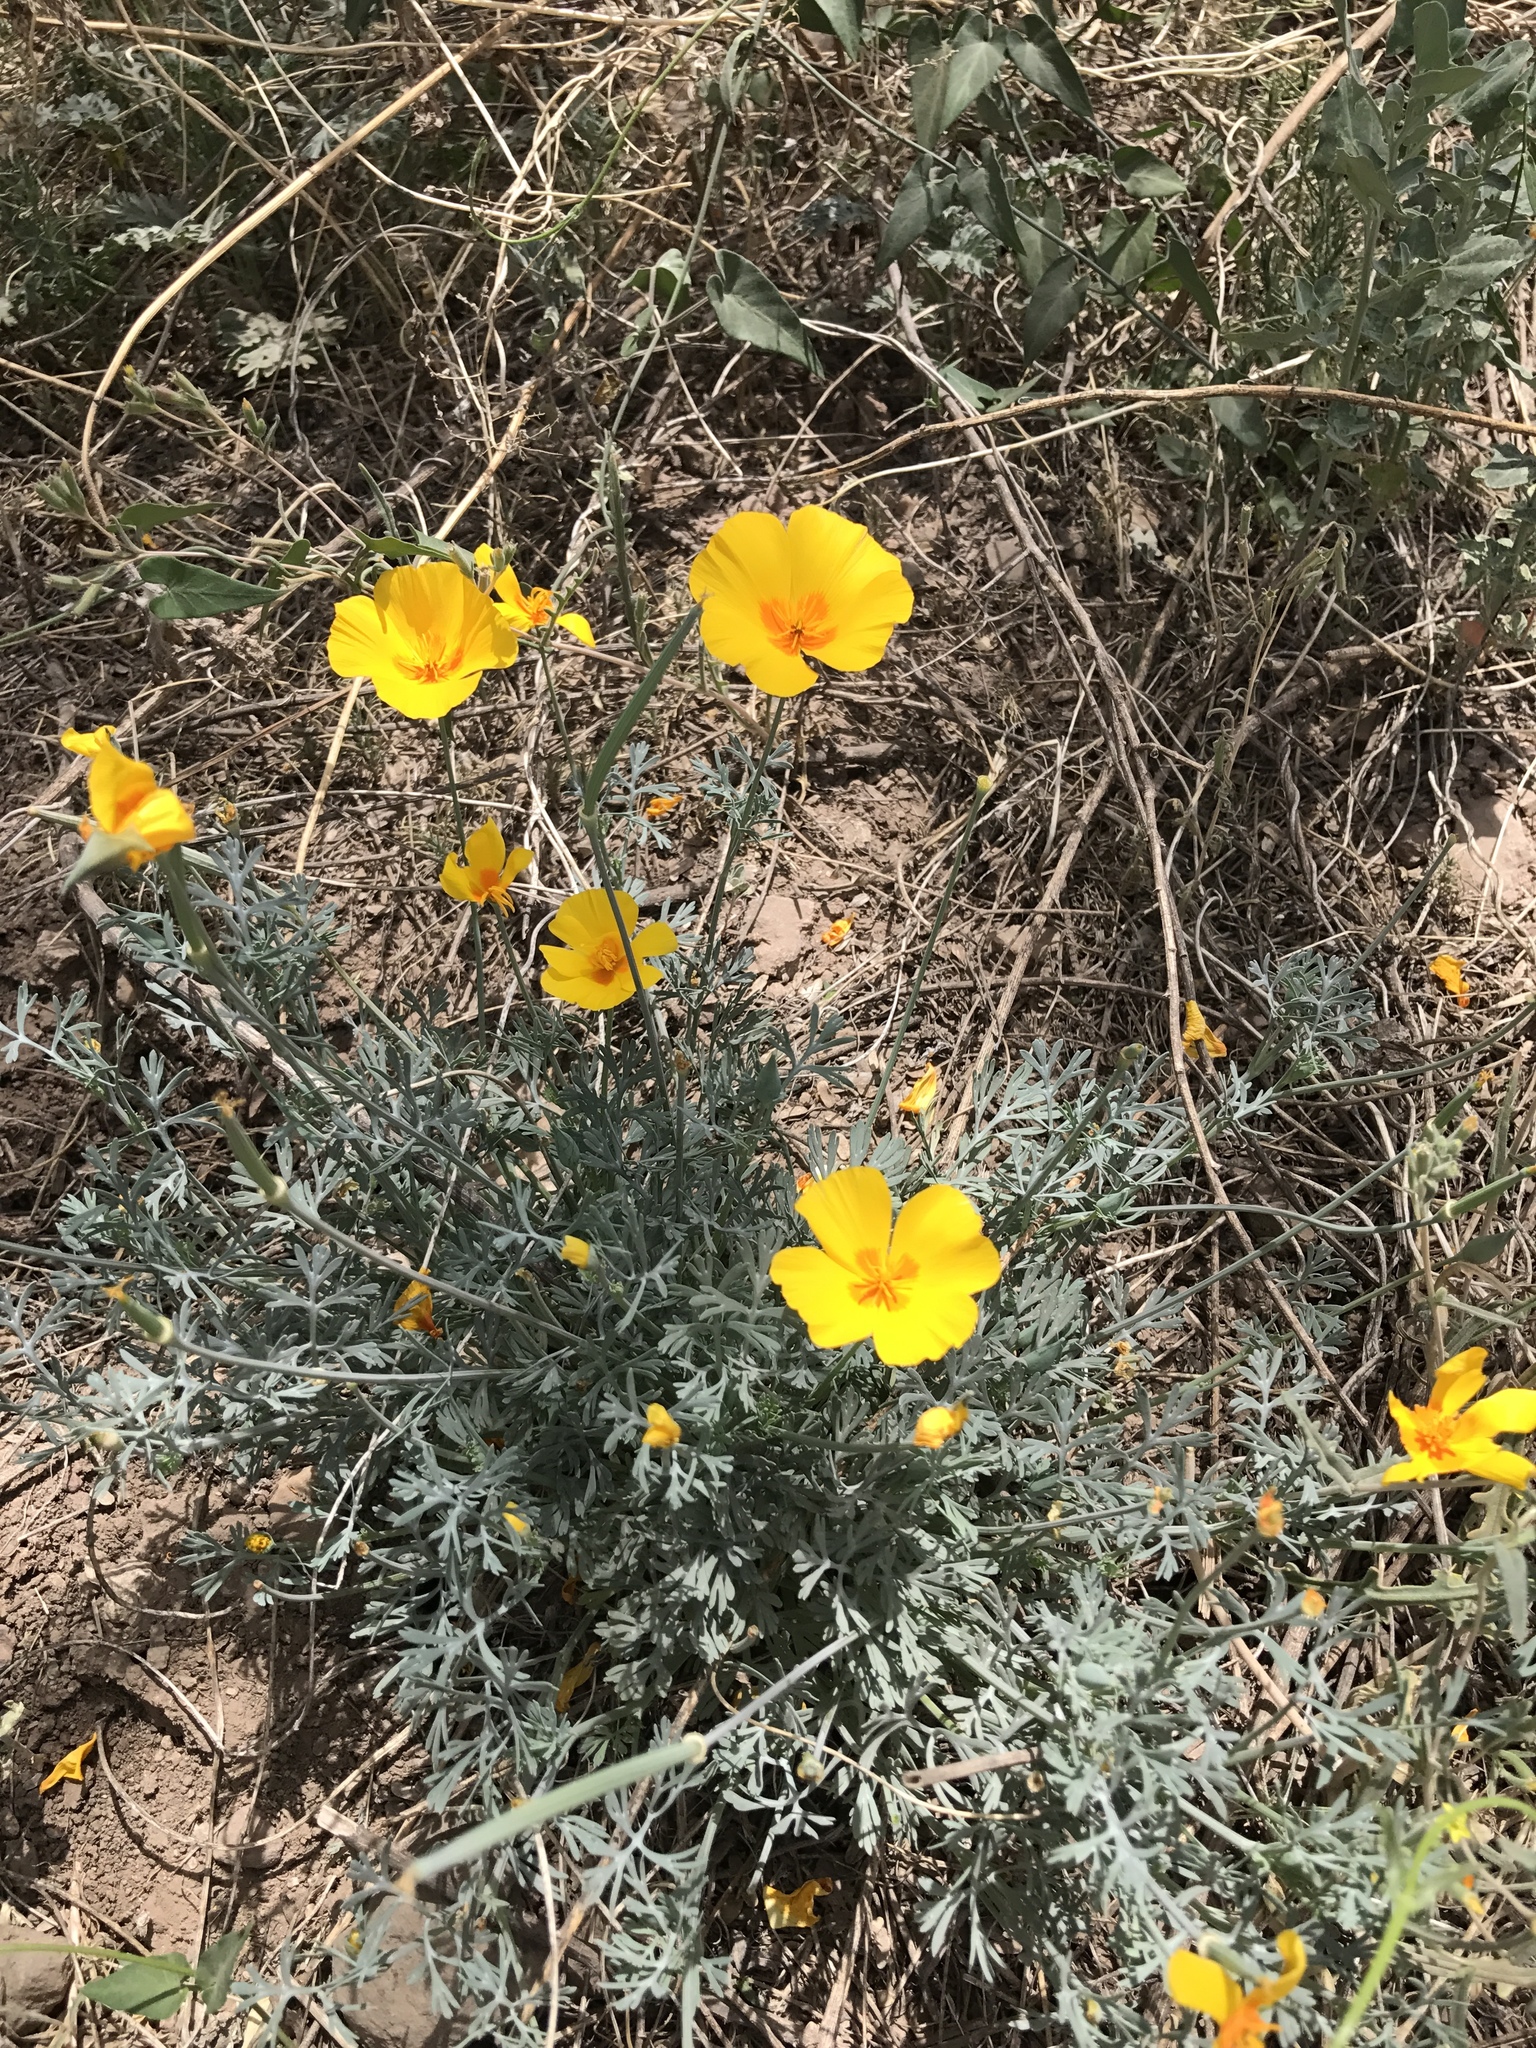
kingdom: Plantae
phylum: Tracheophyta
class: Magnoliopsida
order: Ranunculales
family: Papaveraceae
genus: Eschscholzia
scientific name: Eschscholzia californica
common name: California poppy
